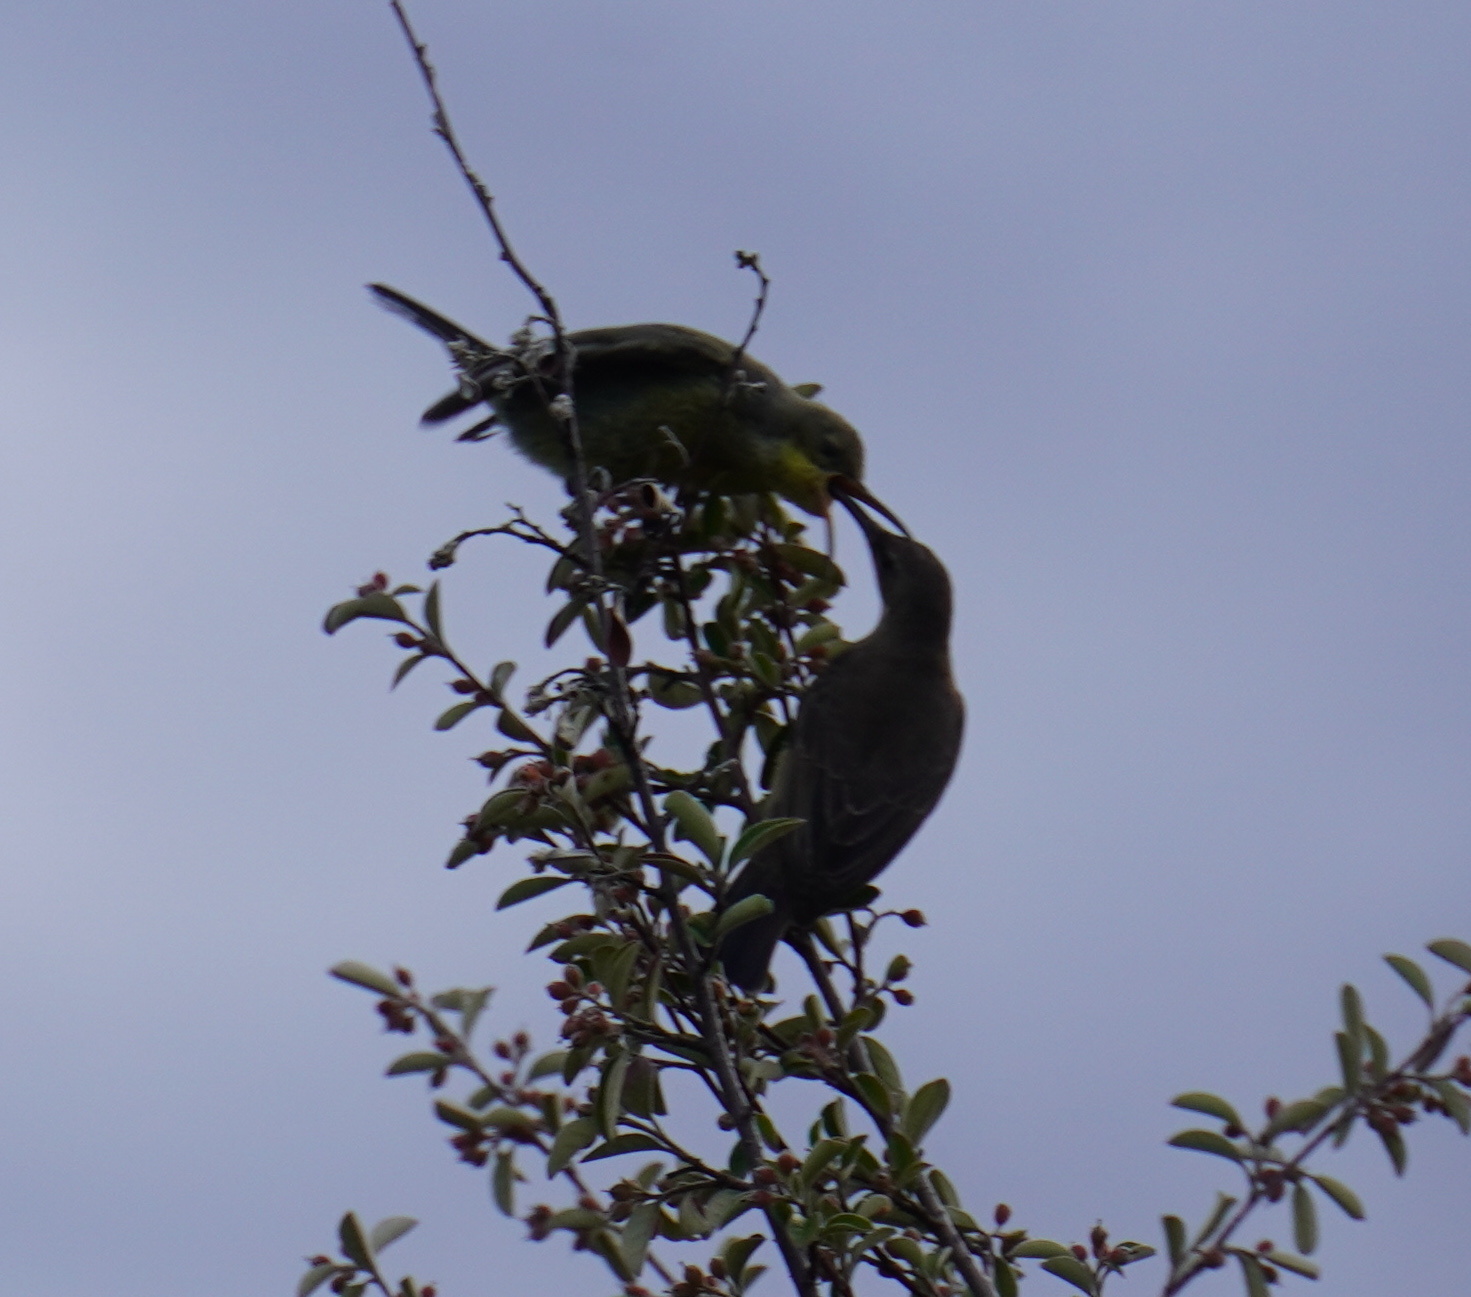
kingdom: Animalia
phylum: Chordata
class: Aves
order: Passeriformes
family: Nectariniidae
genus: Nectarinia
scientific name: Nectarinia famosa
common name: Malachite sunbird
